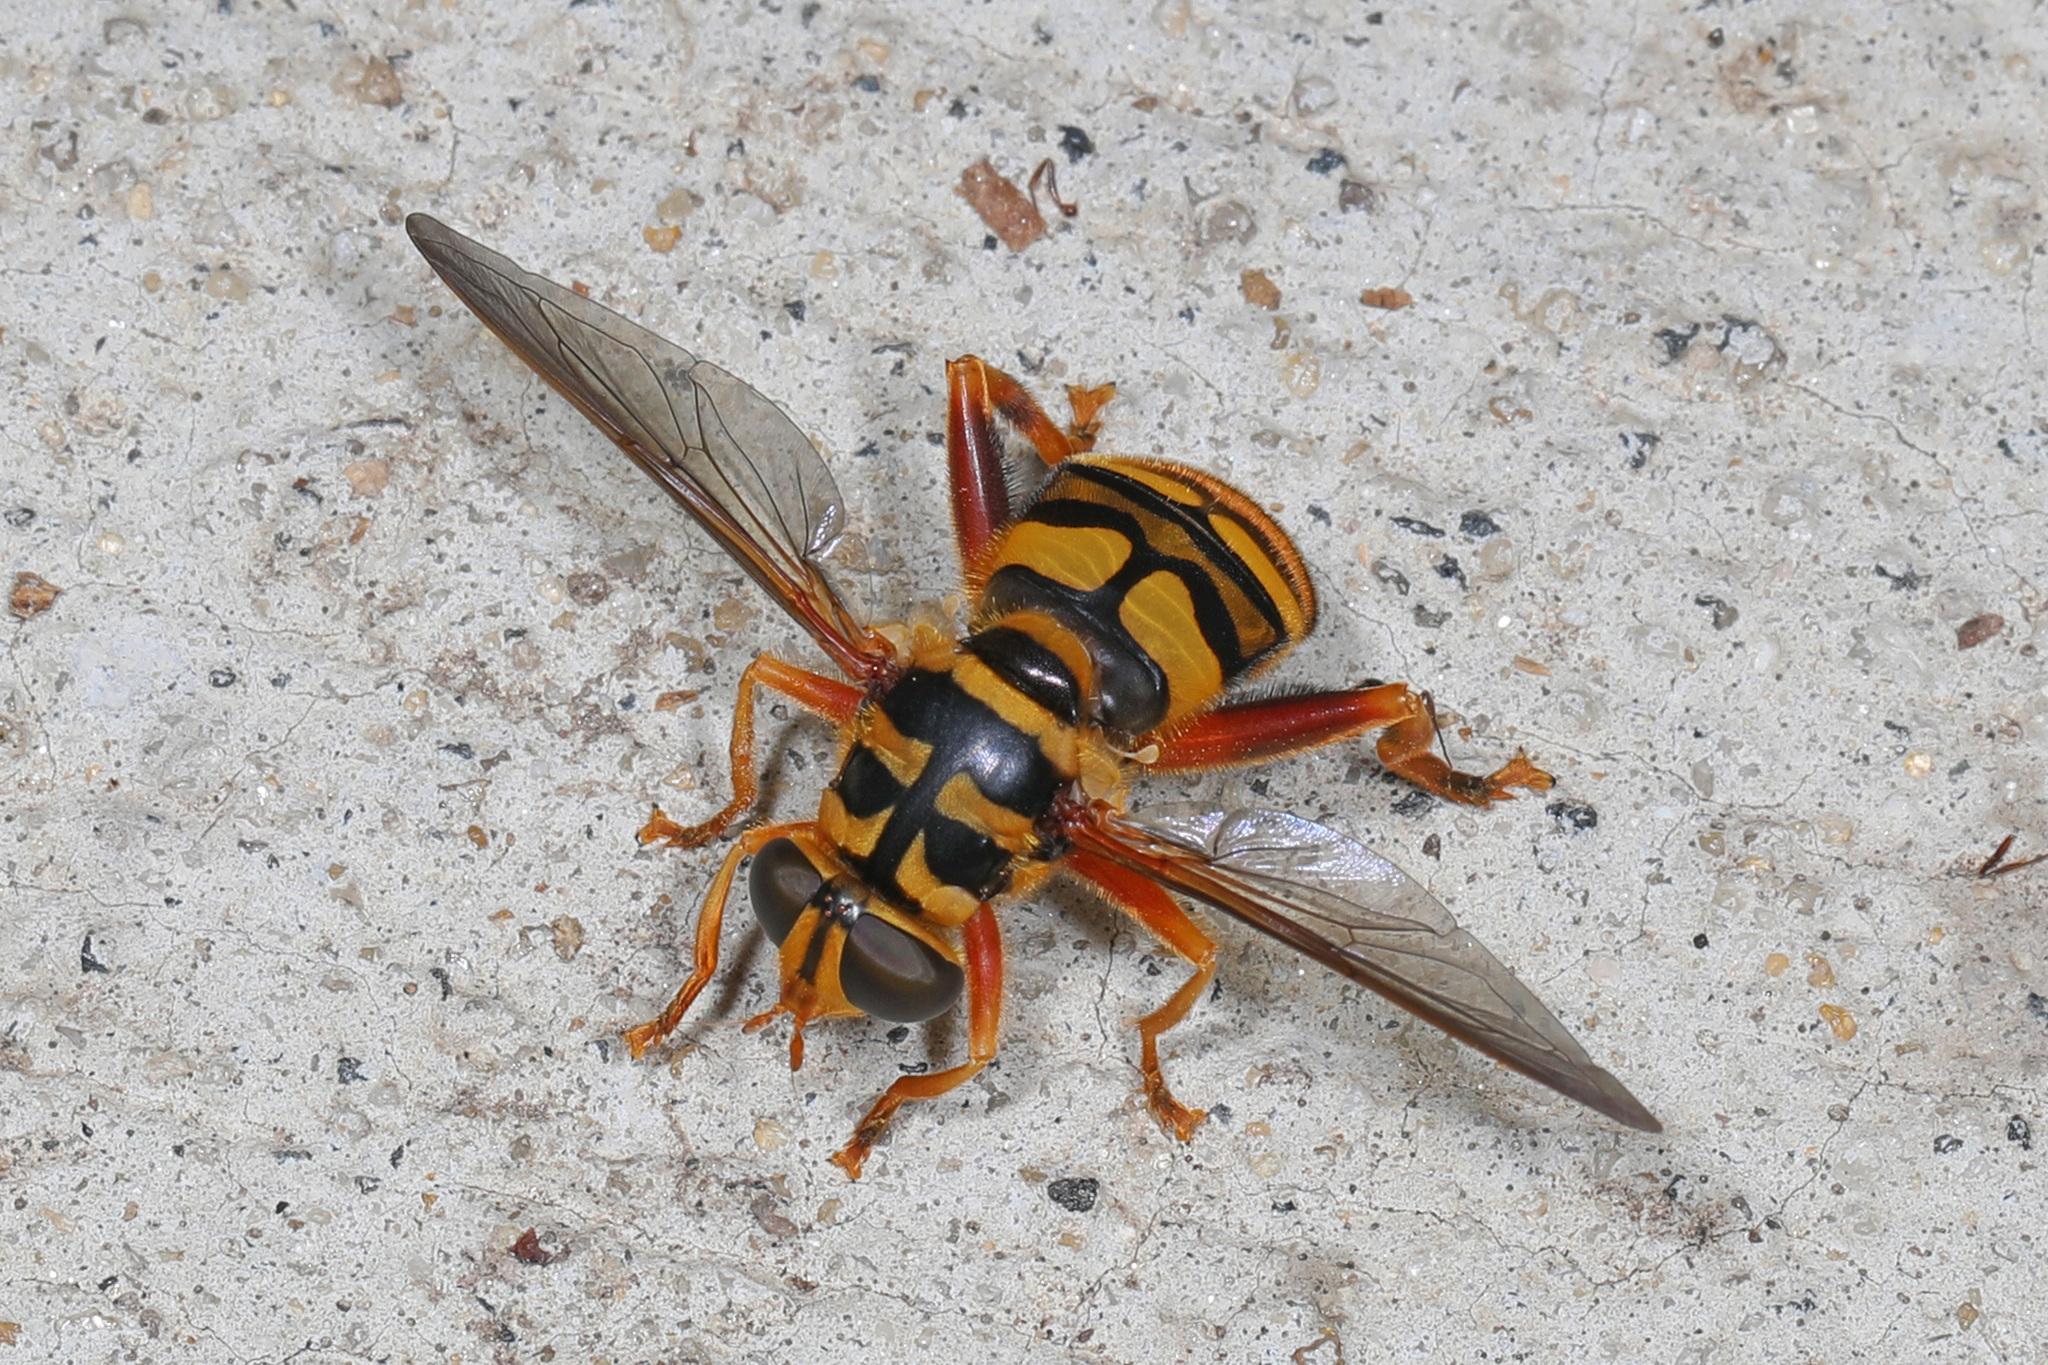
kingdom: Animalia
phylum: Arthropoda
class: Insecta
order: Diptera
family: Syrphidae
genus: Milesia
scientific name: Milesia virginiensis
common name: Virginia giant
